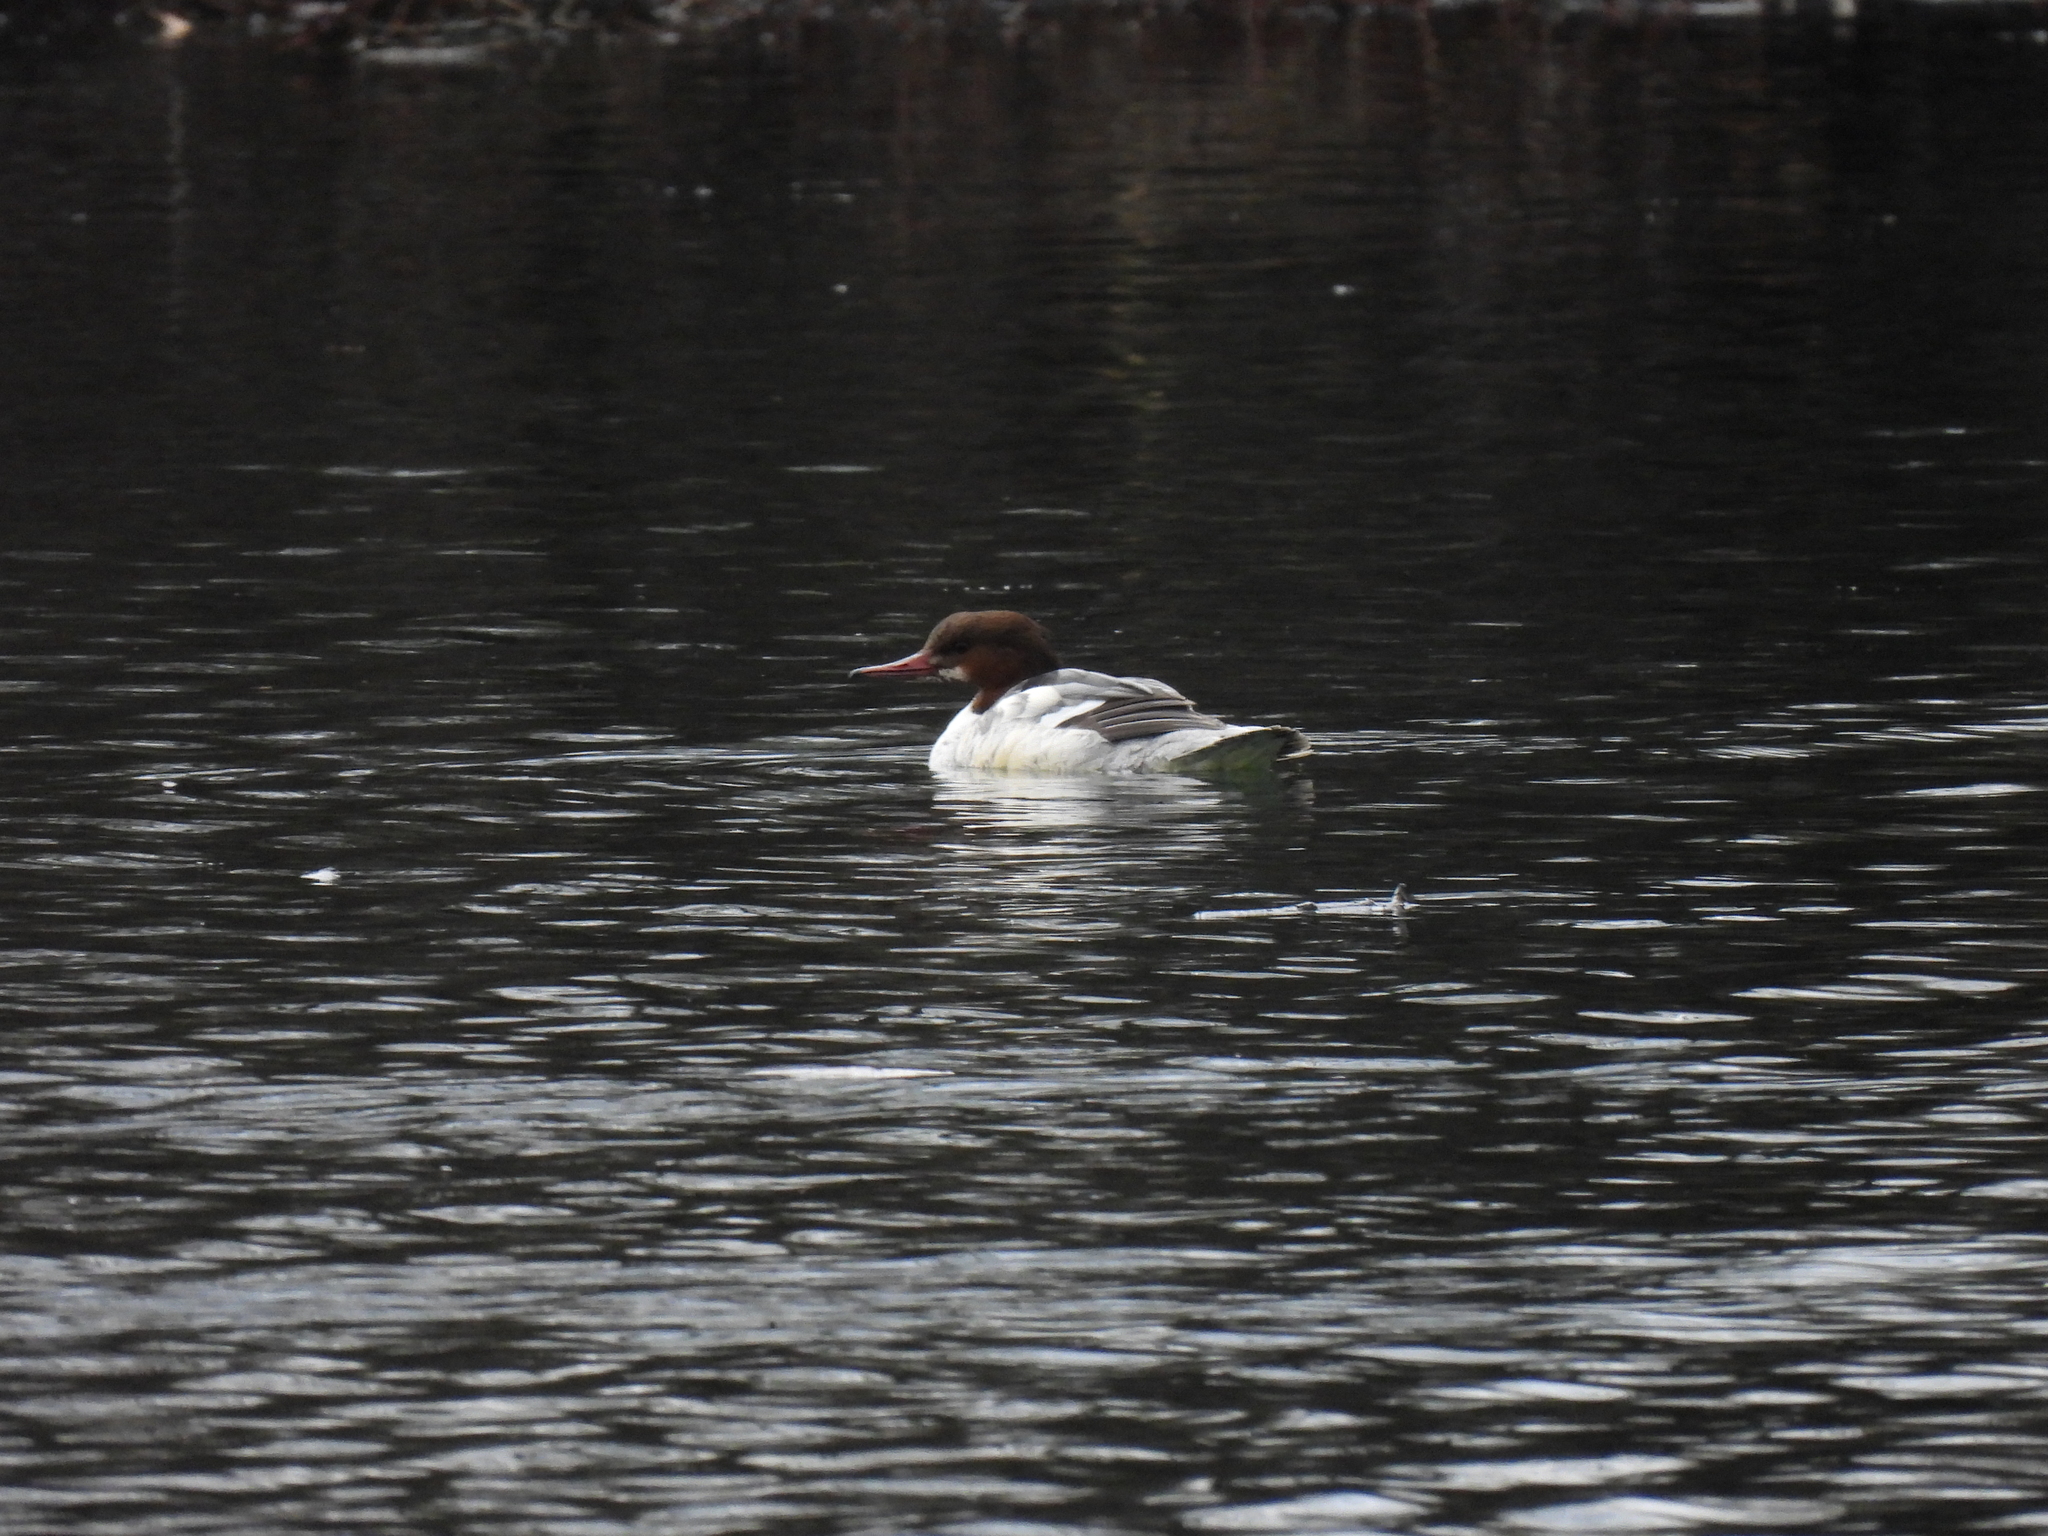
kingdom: Animalia
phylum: Chordata
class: Aves
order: Anseriformes
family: Anatidae
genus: Mergus
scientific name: Mergus merganser
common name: Common merganser
